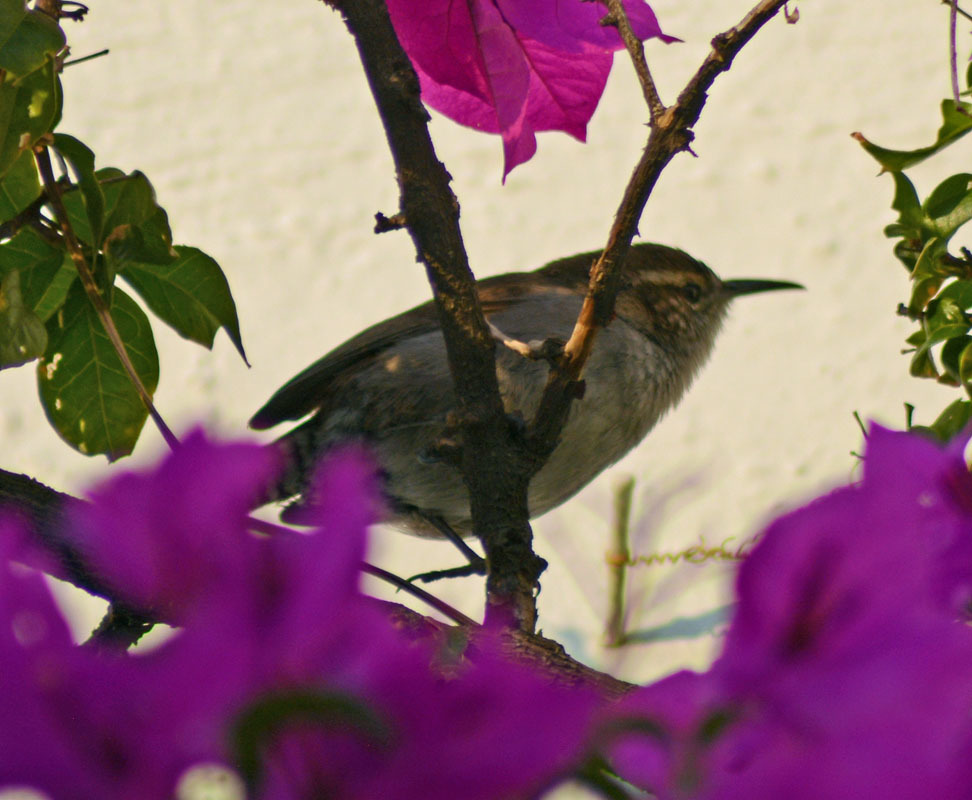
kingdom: Animalia
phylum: Chordata
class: Aves
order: Passeriformes
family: Troglodytidae
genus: Thryomanes
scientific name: Thryomanes bewickii
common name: Bewick's wren
